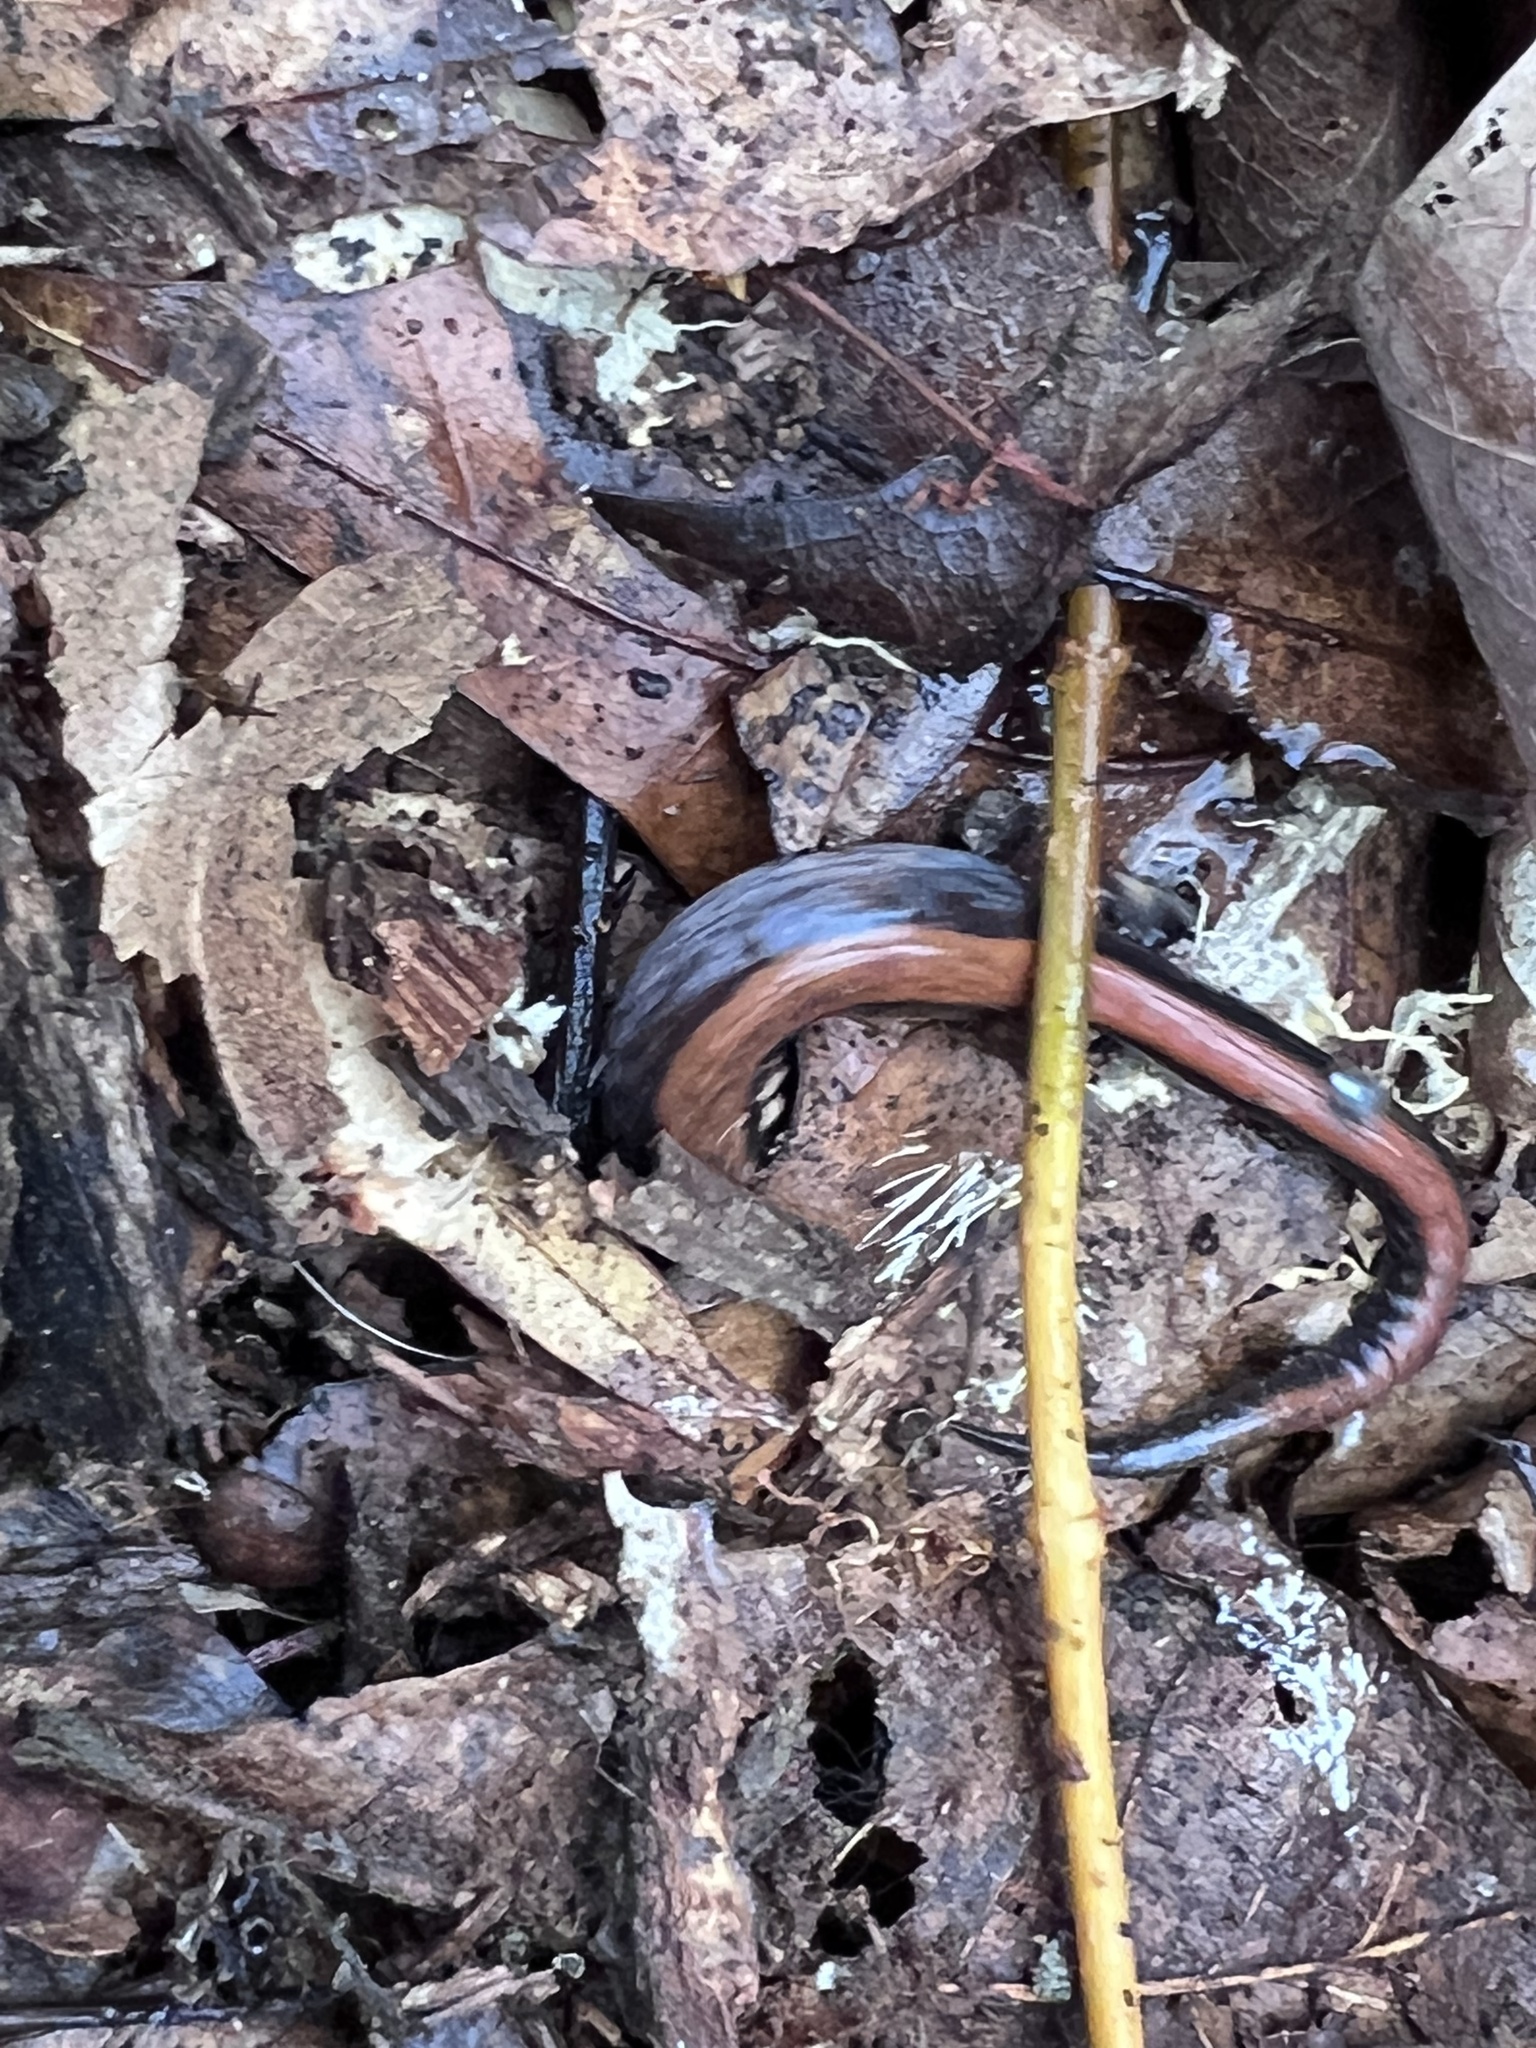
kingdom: Animalia
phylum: Chordata
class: Amphibia
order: Caudata
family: Plethodontidae
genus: Plethodon
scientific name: Plethodon cinereus
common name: Redback salamander
